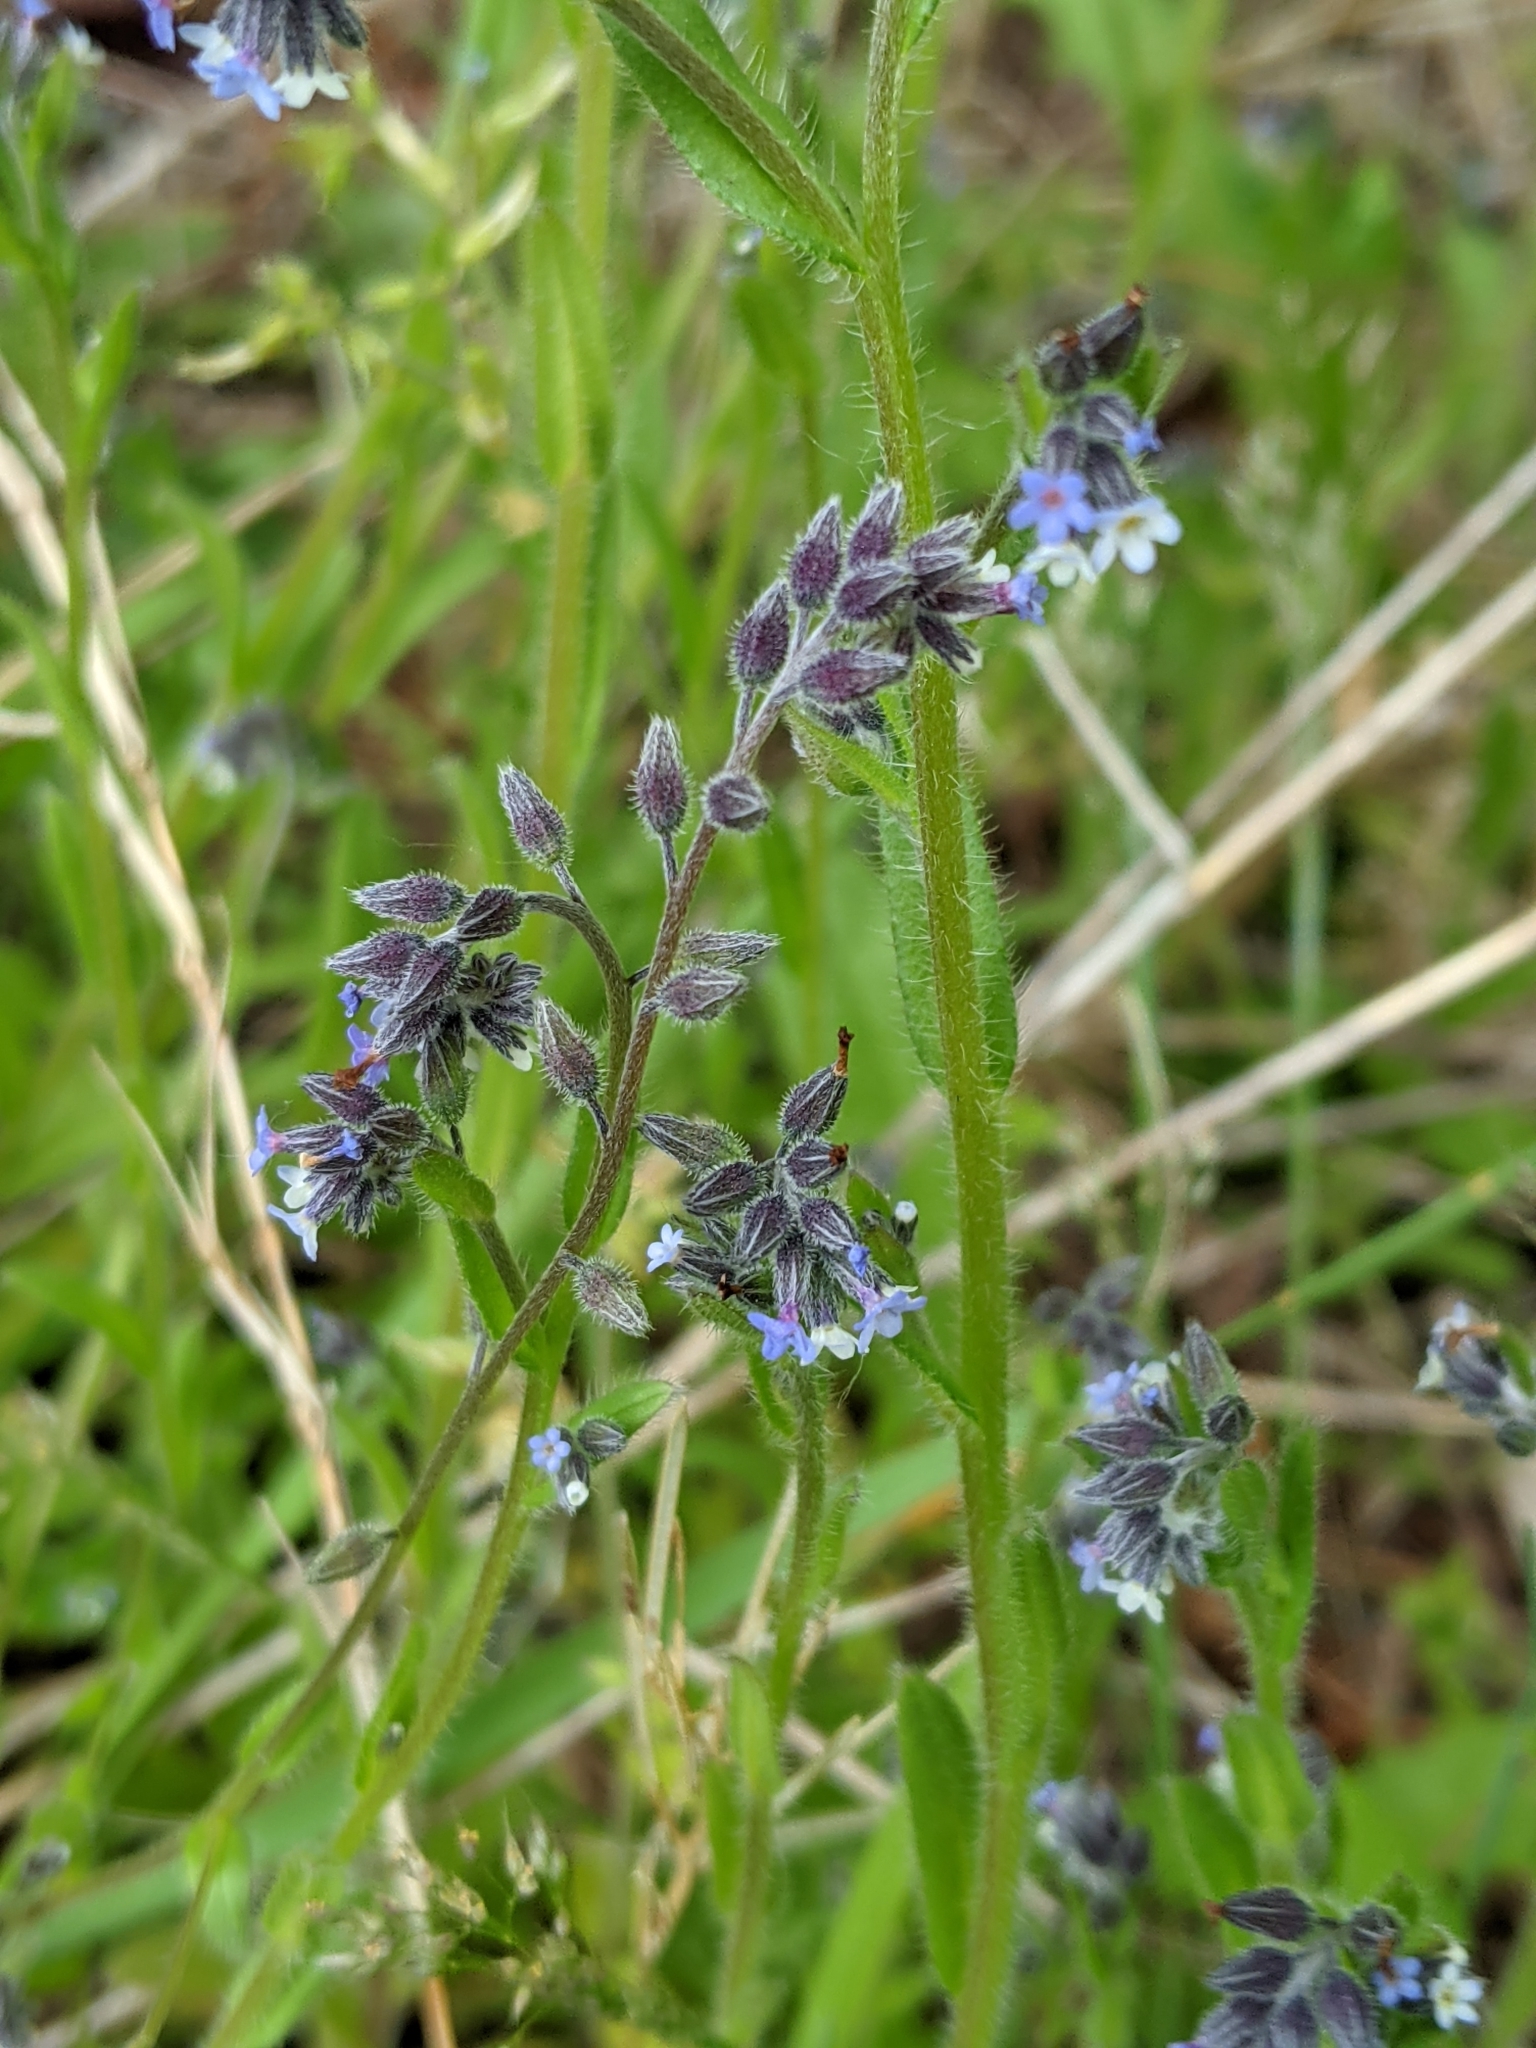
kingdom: Plantae
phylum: Tracheophyta
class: Magnoliopsida
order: Boraginales
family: Boraginaceae
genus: Myosotis
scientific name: Myosotis discolor
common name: Changing forget-me-not
